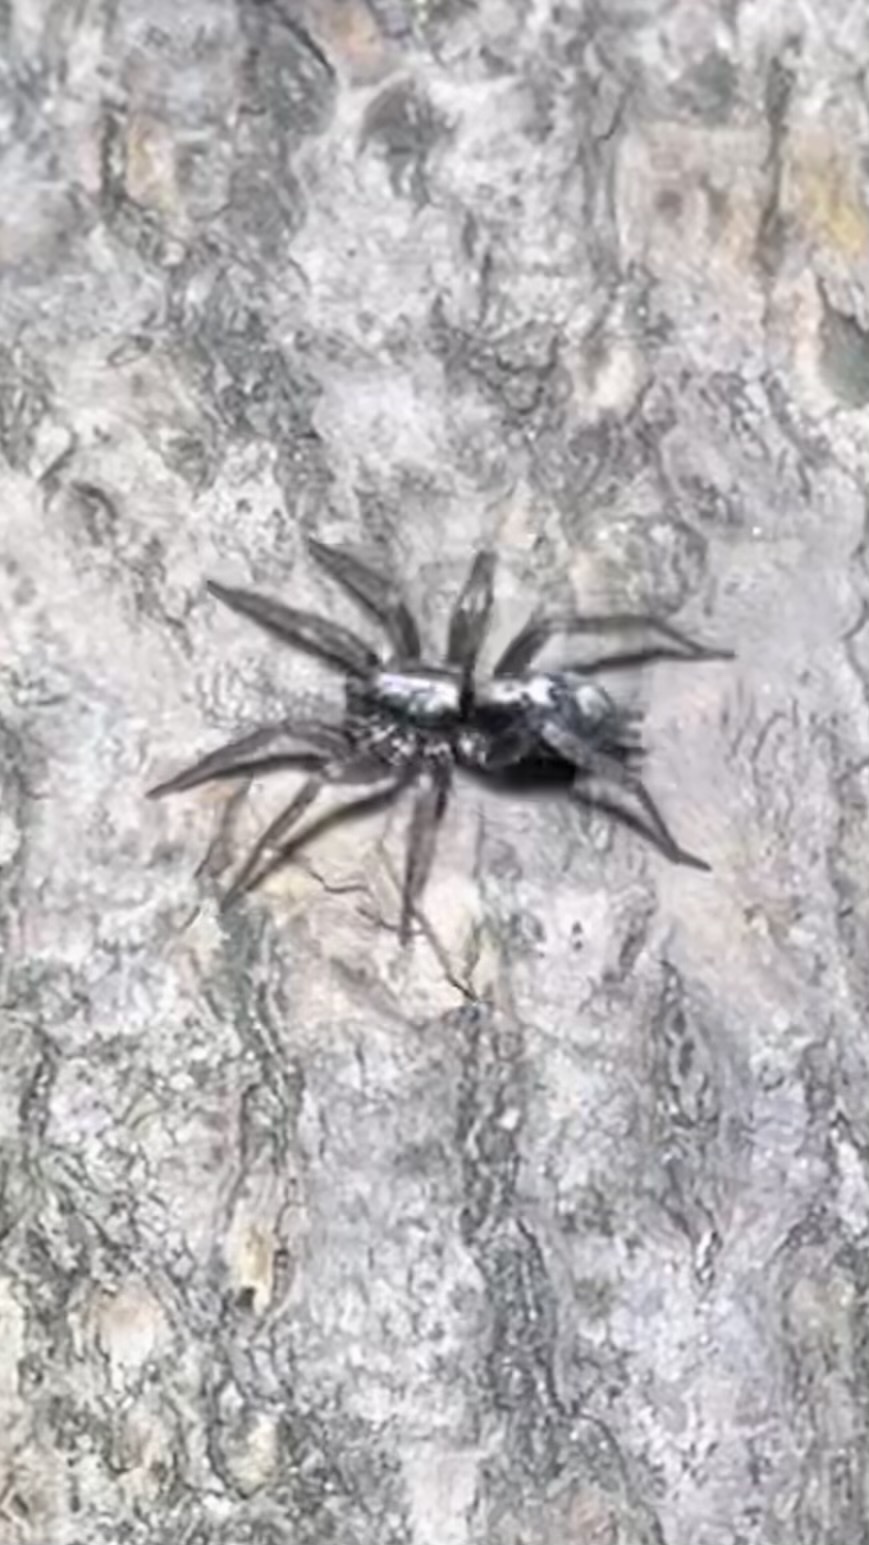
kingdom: Animalia
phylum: Arthropoda
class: Arachnida
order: Araneae
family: Gnaphosidae
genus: Herpyllus
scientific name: Herpyllus ecclesiasticus
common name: Eastern parson spider
